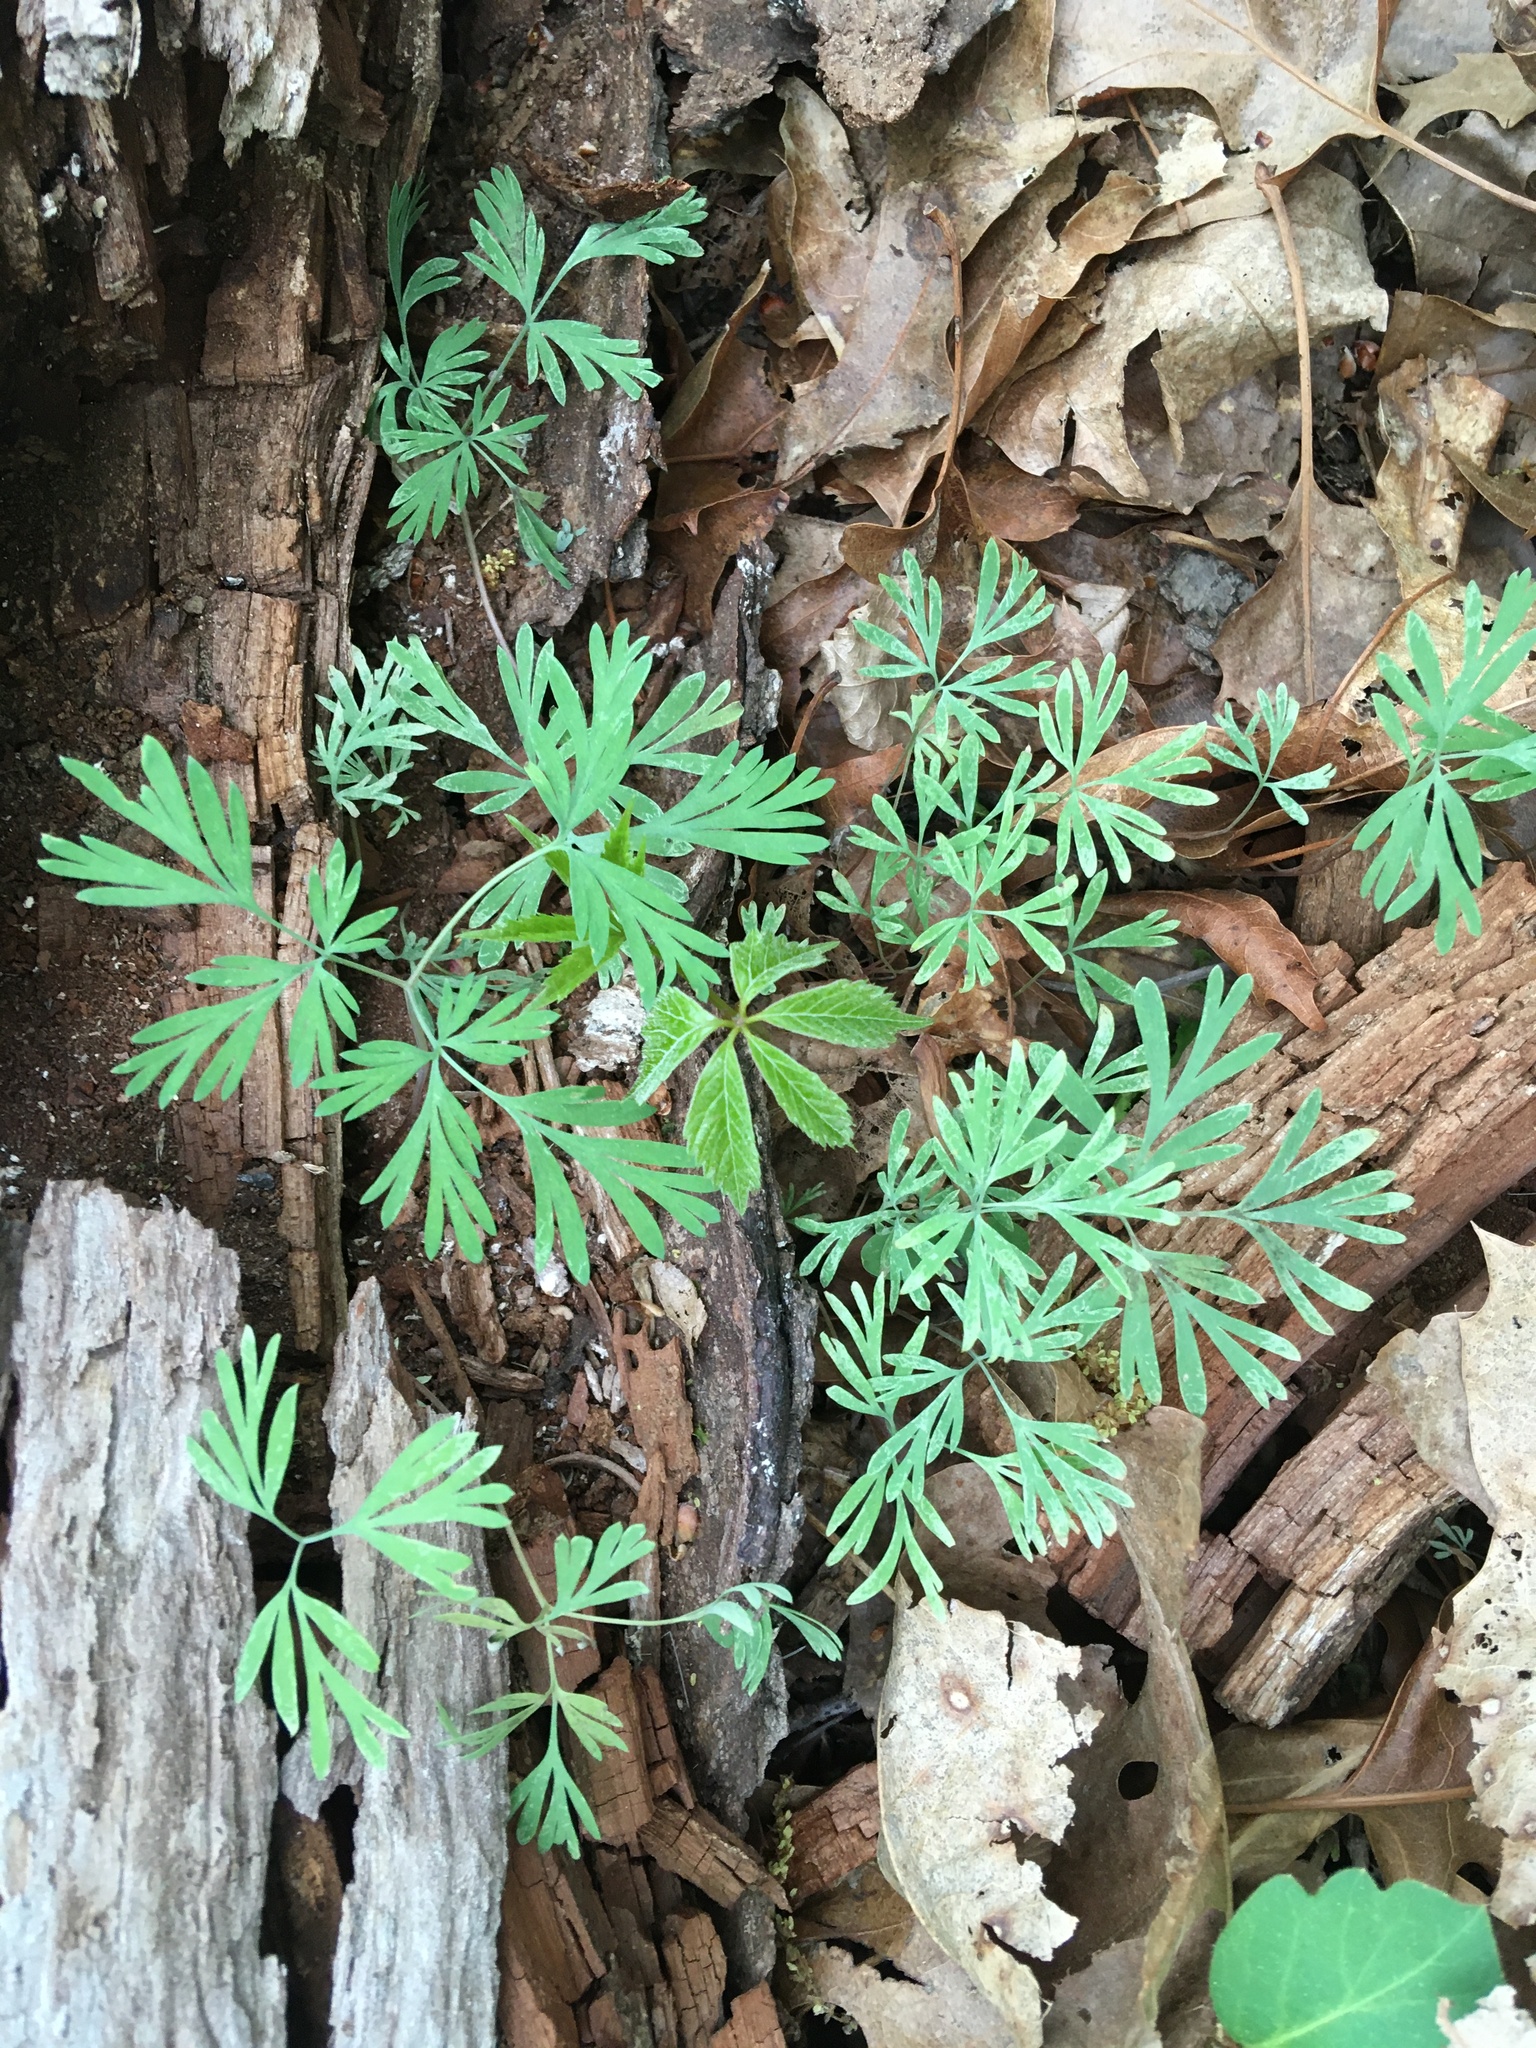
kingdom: Plantae
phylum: Tracheophyta
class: Magnoliopsida
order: Ranunculales
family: Papaveraceae
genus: Dicentra
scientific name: Dicentra cucullaria
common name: Dutchman's breeches
